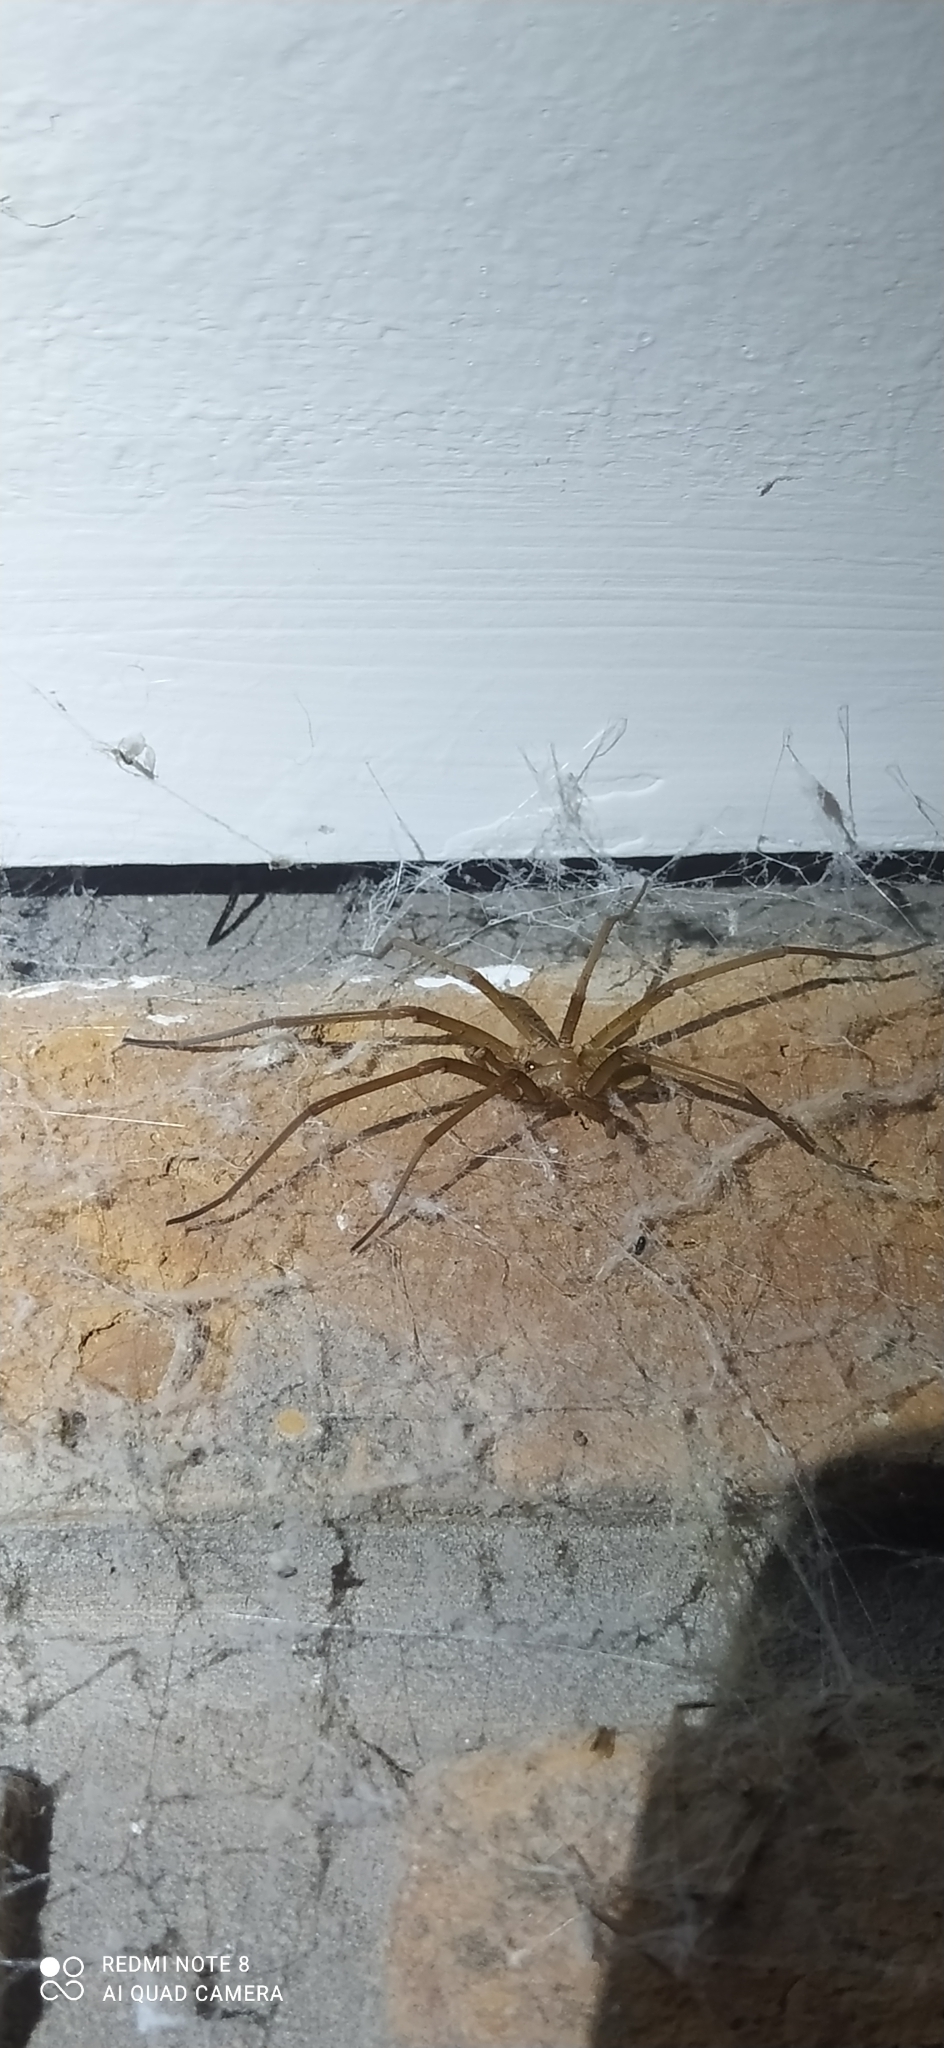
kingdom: Animalia
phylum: Arthropoda
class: Arachnida
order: Araneae
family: Filistatidae
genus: Kukulcania
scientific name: Kukulcania hibernalis
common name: Crevice weaver
